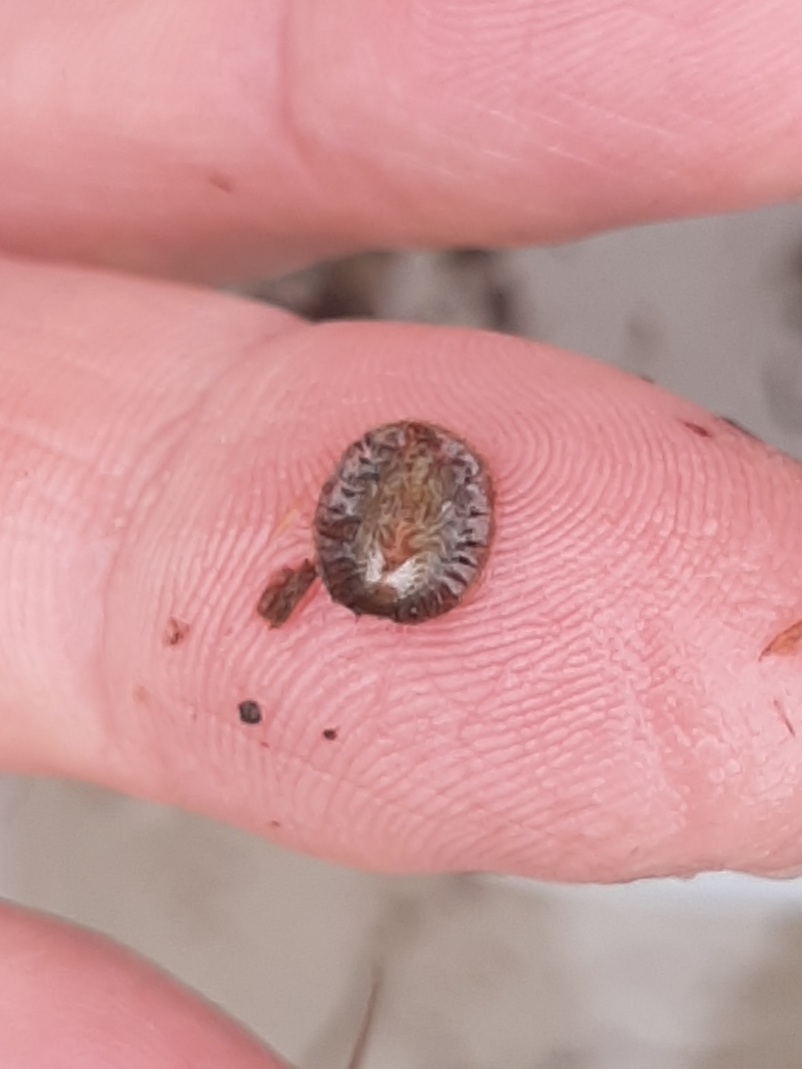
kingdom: Animalia
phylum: Arthropoda
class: Insecta
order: Coleoptera
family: Psephenidae
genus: Psephenus
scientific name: Psephenus herricki
